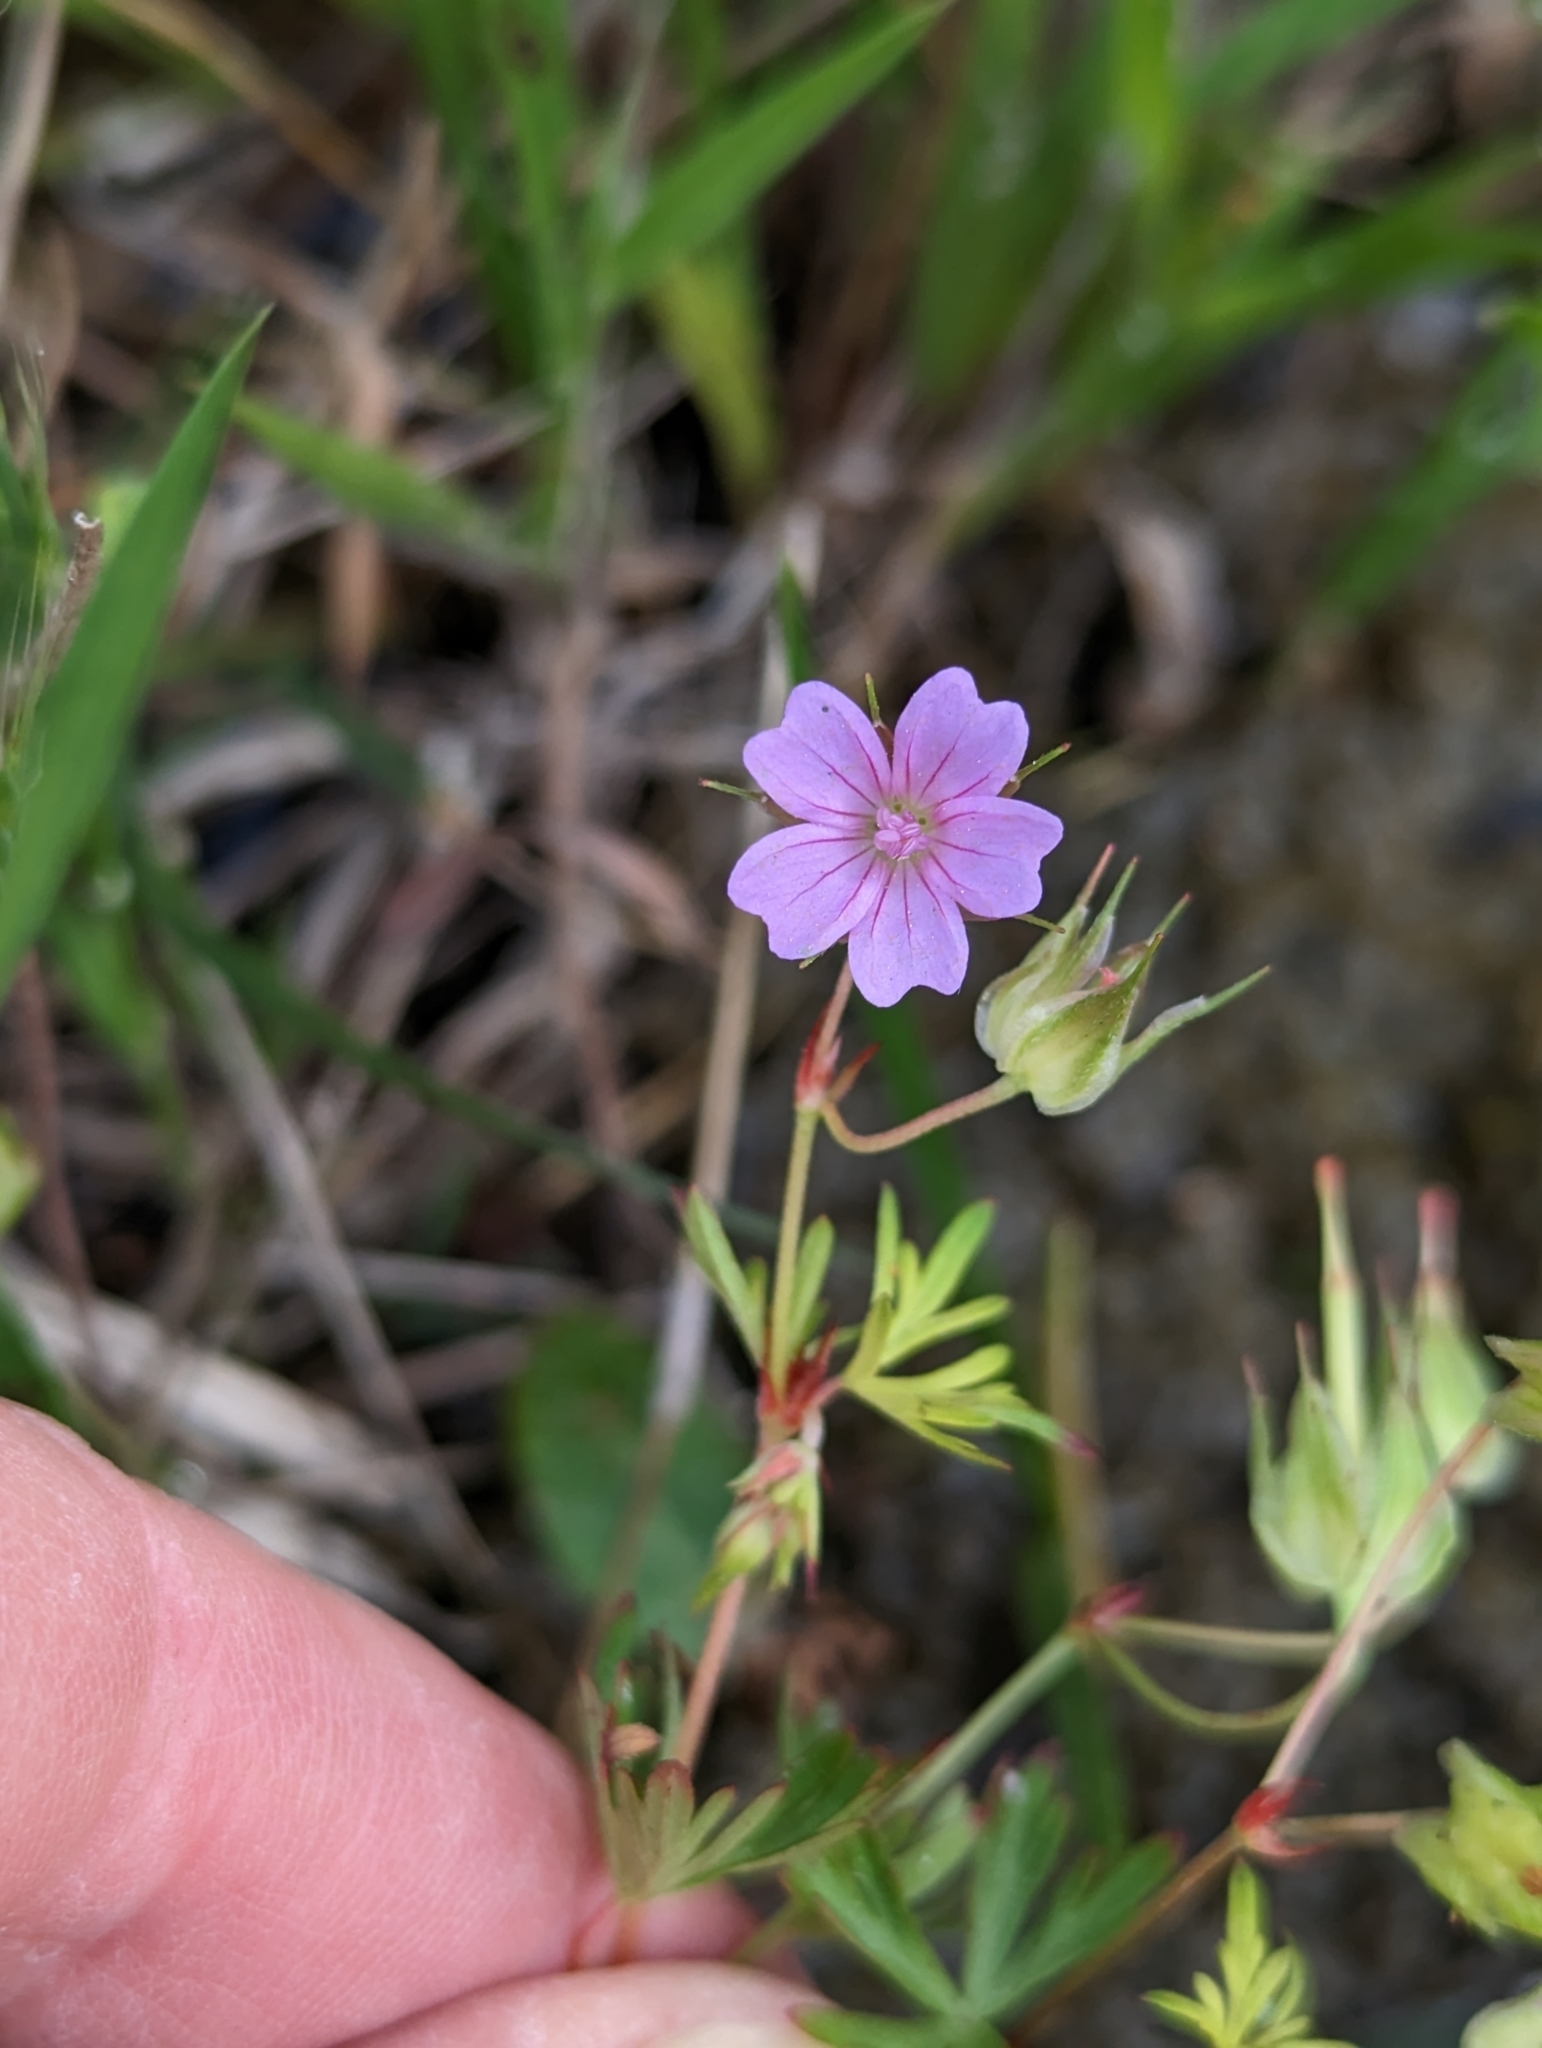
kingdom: Plantae
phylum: Tracheophyta
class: Magnoliopsida
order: Geraniales
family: Geraniaceae
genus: Geranium
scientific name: Geranium columbinum
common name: Long-stalked crane's-bill
